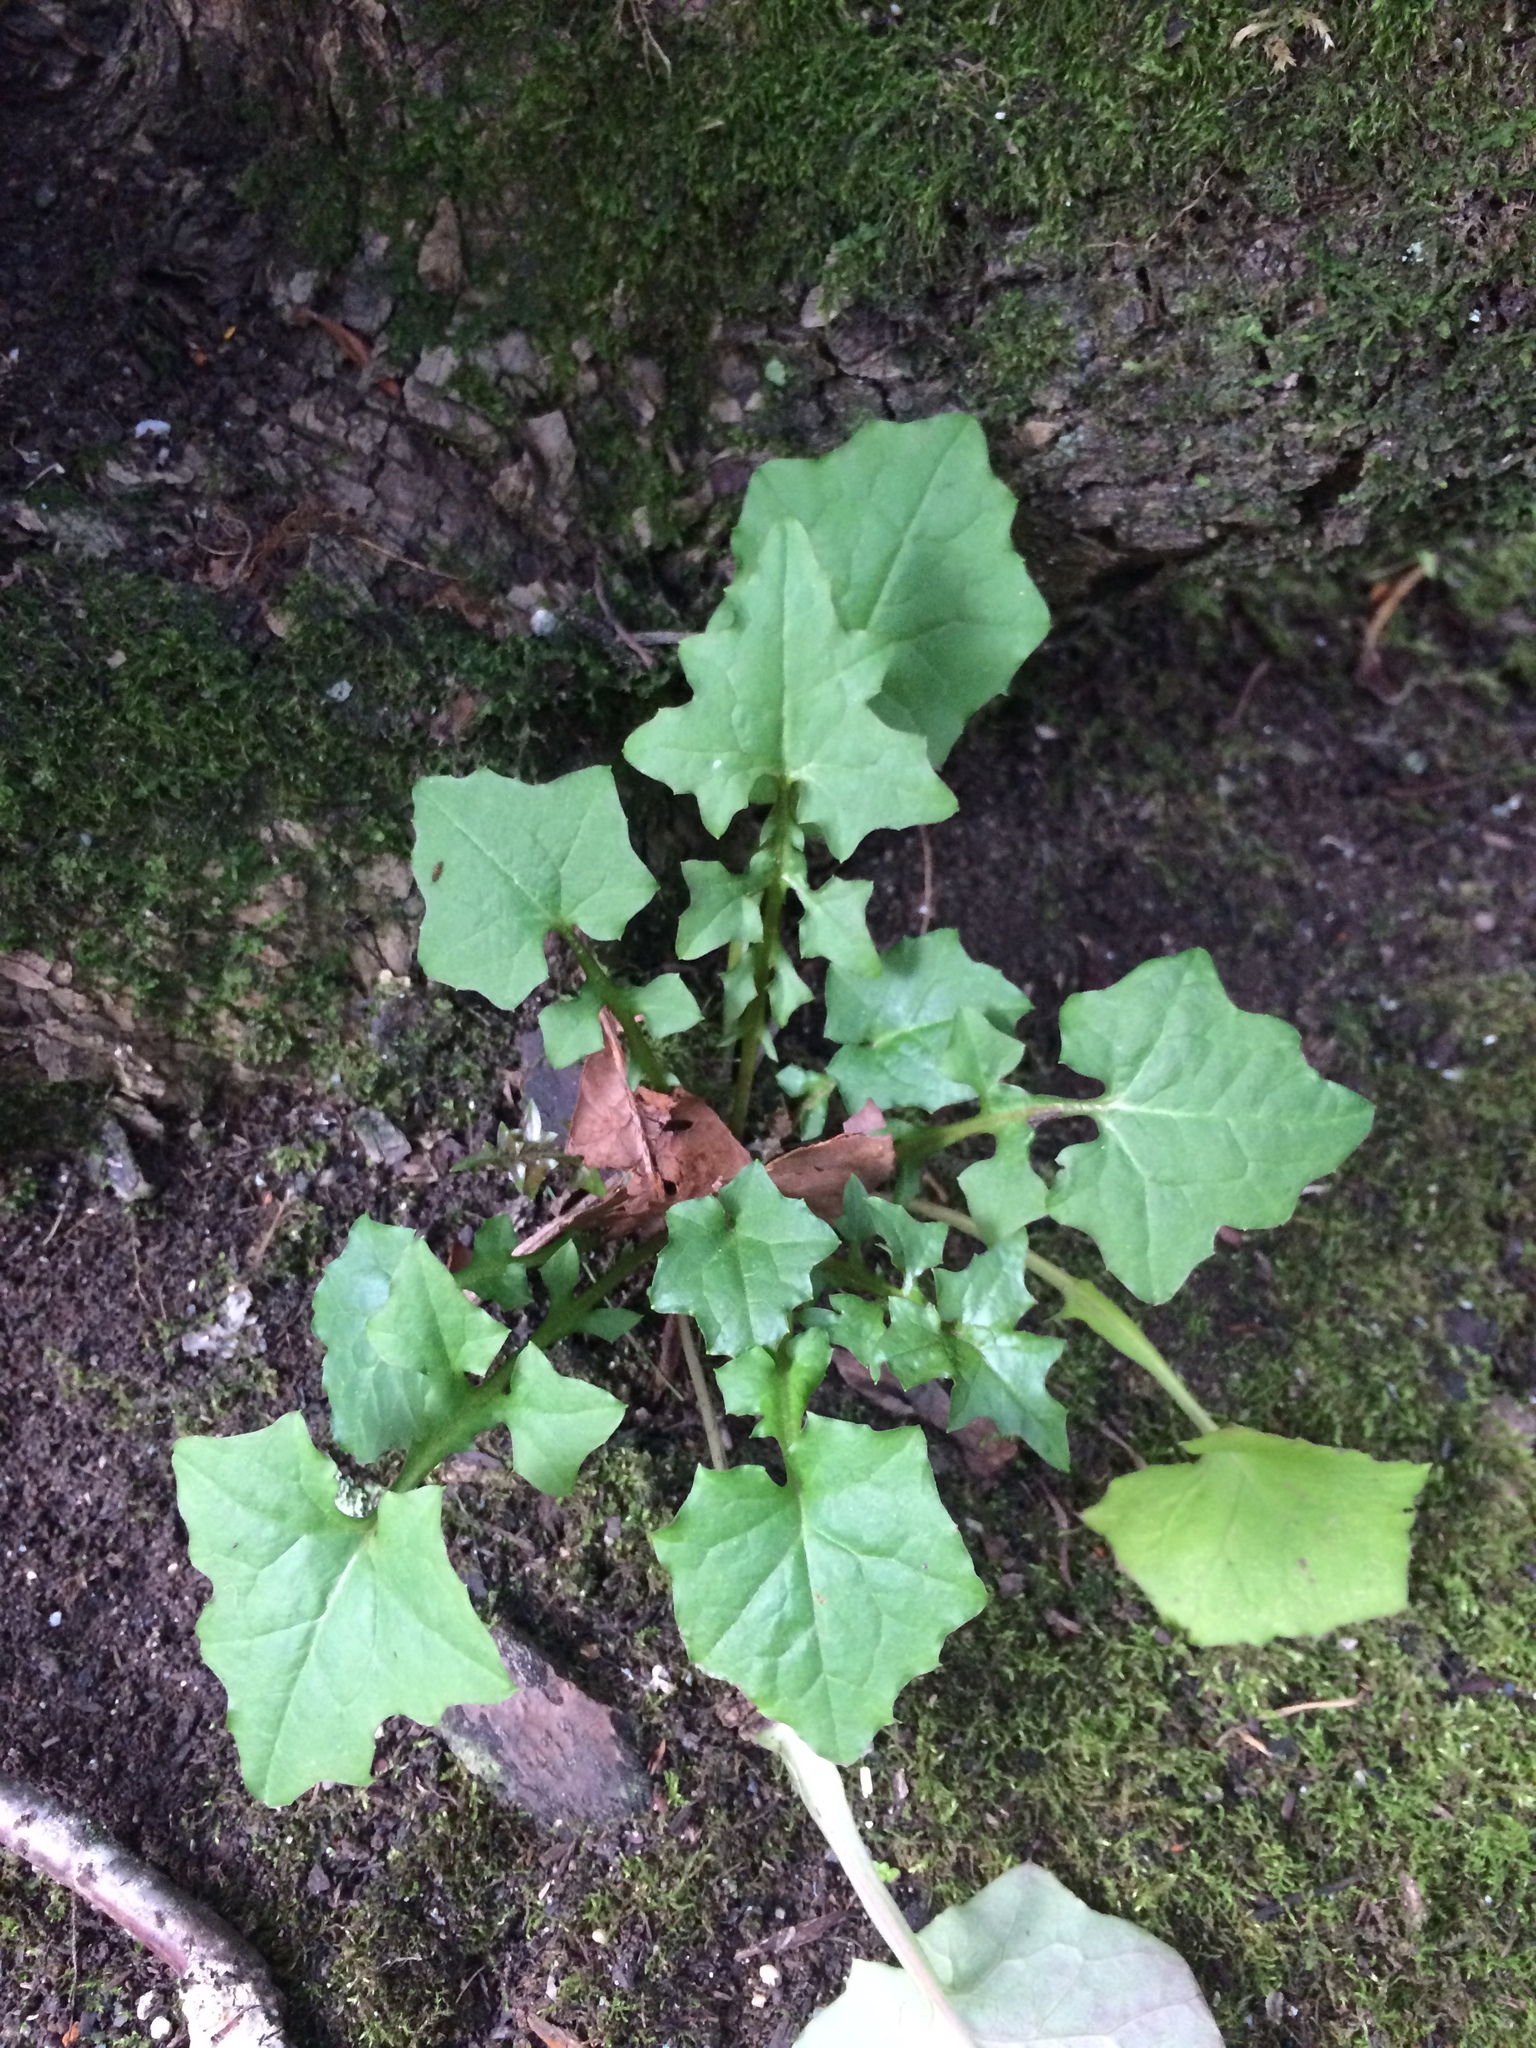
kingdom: Plantae
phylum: Tracheophyta
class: Magnoliopsida
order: Asterales
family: Asteraceae
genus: Mycelis
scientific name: Mycelis muralis
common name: Wall lettuce
